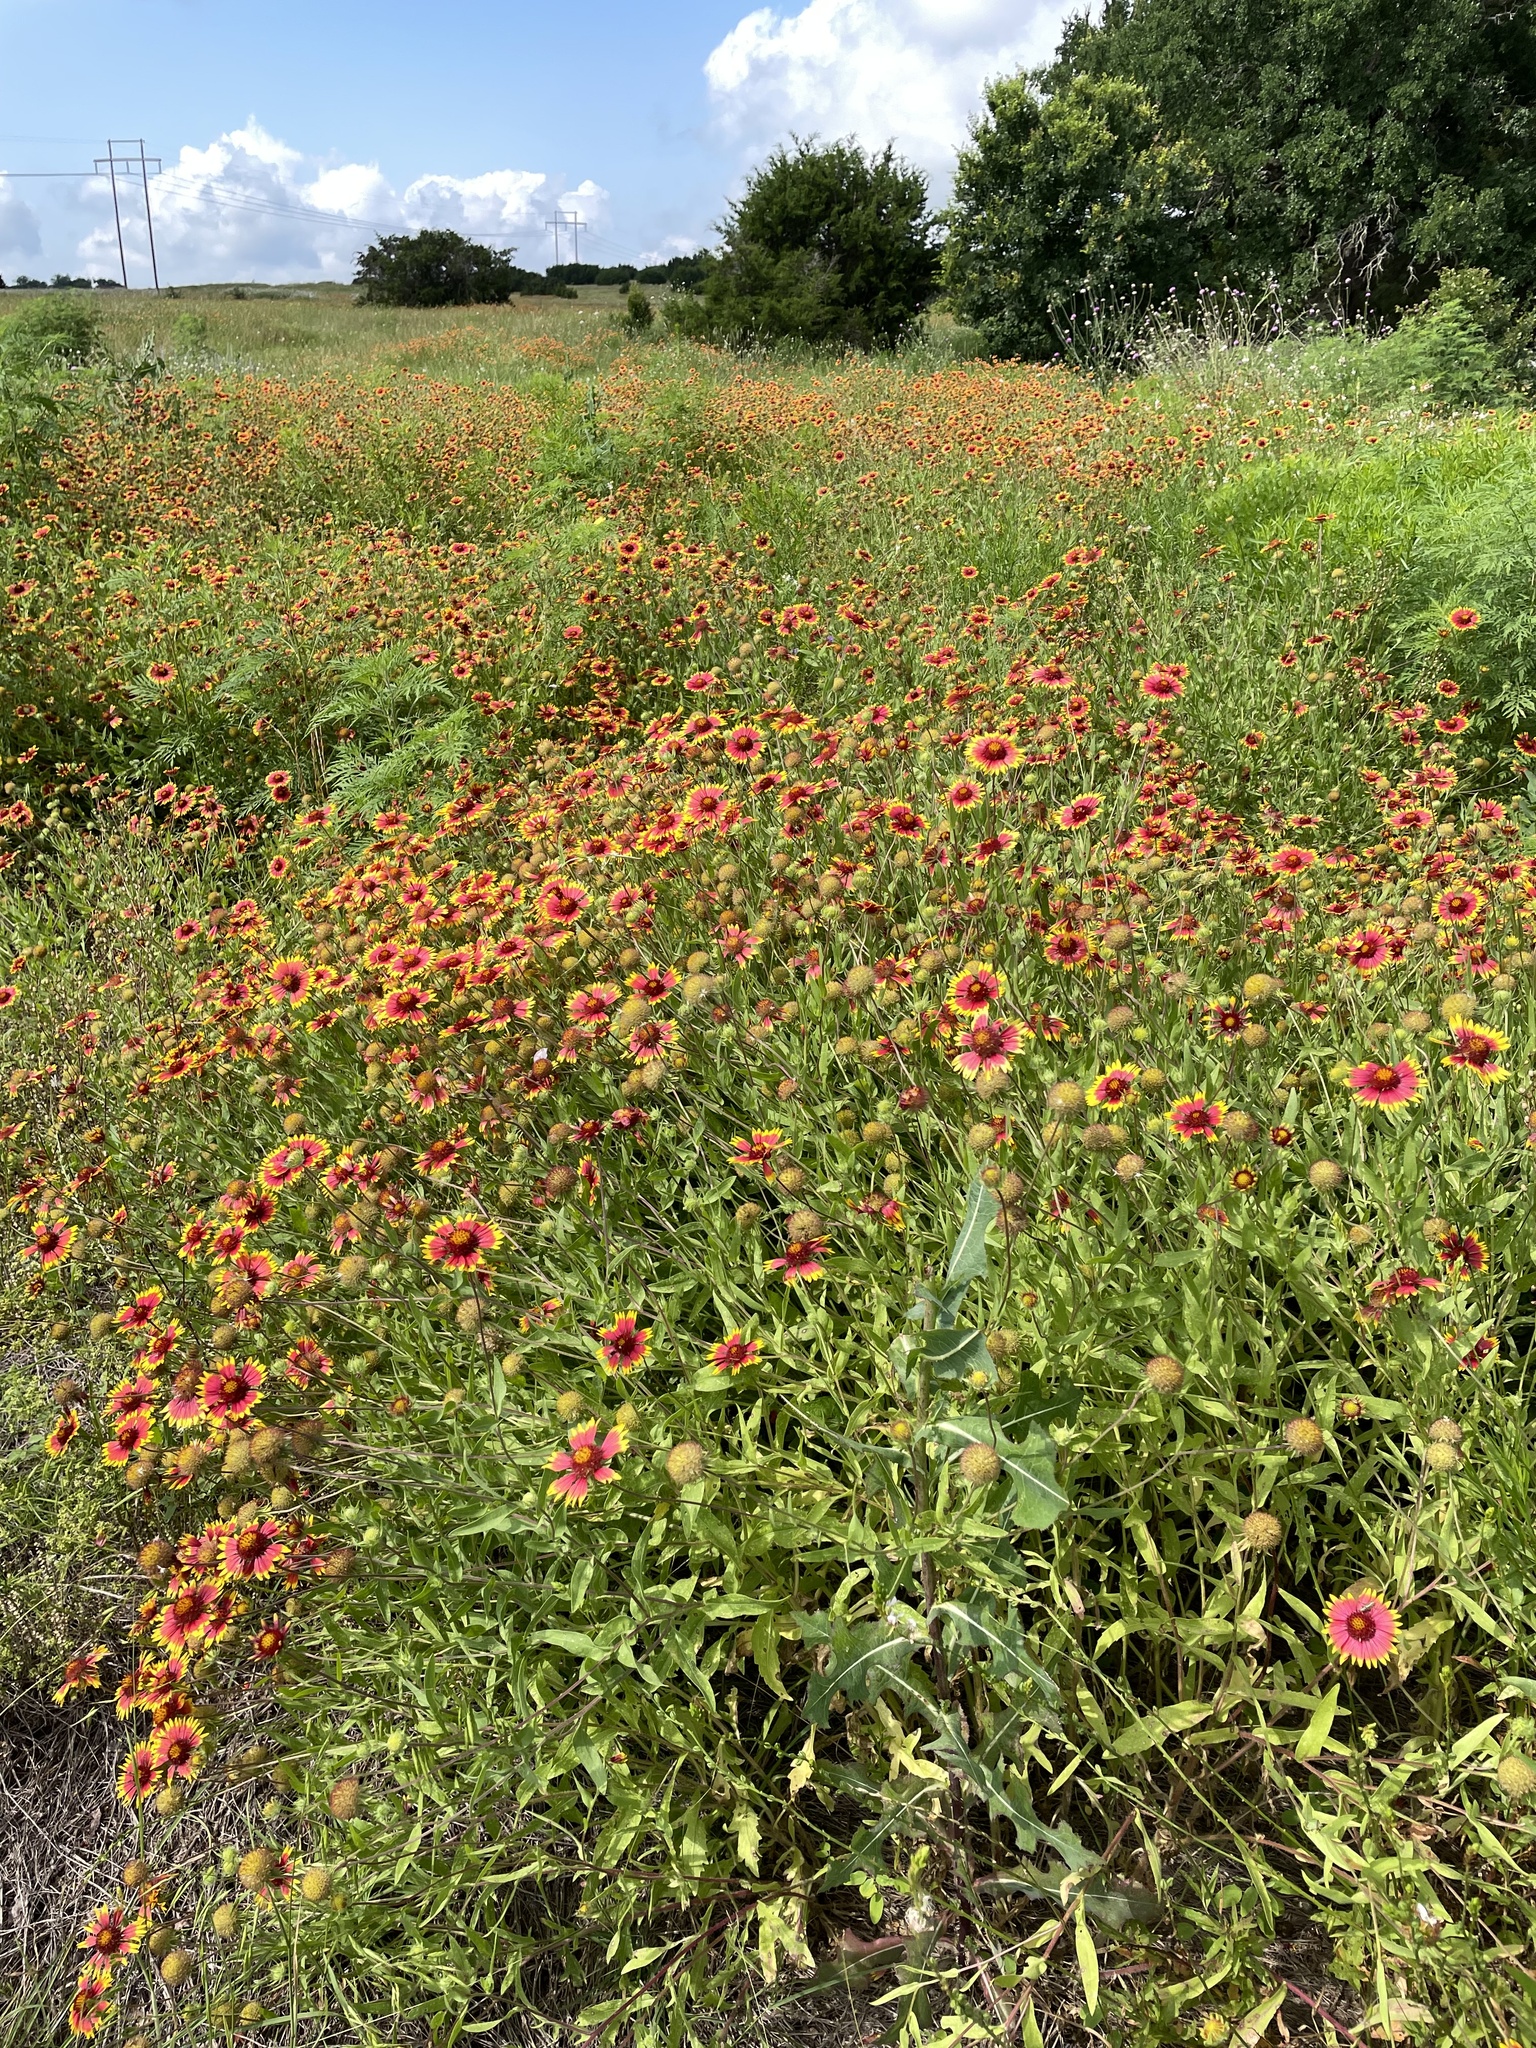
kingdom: Plantae
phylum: Tracheophyta
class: Magnoliopsida
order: Asterales
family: Asteraceae
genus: Gaillardia
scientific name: Gaillardia pulchella
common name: Firewheel
